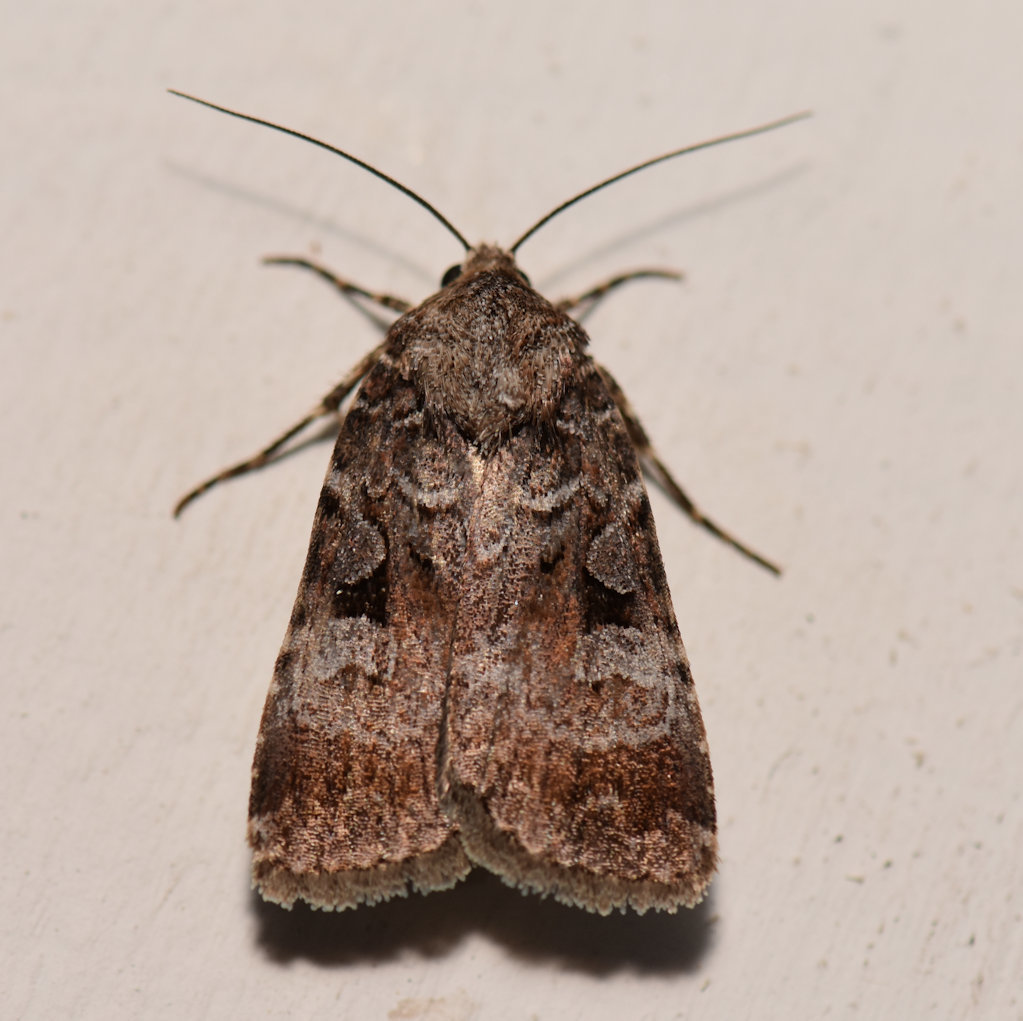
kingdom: Animalia
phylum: Arthropoda
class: Insecta
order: Lepidoptera
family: Noctuidae
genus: Feltia
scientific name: Feltia geniculata
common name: Knee-joint dart
